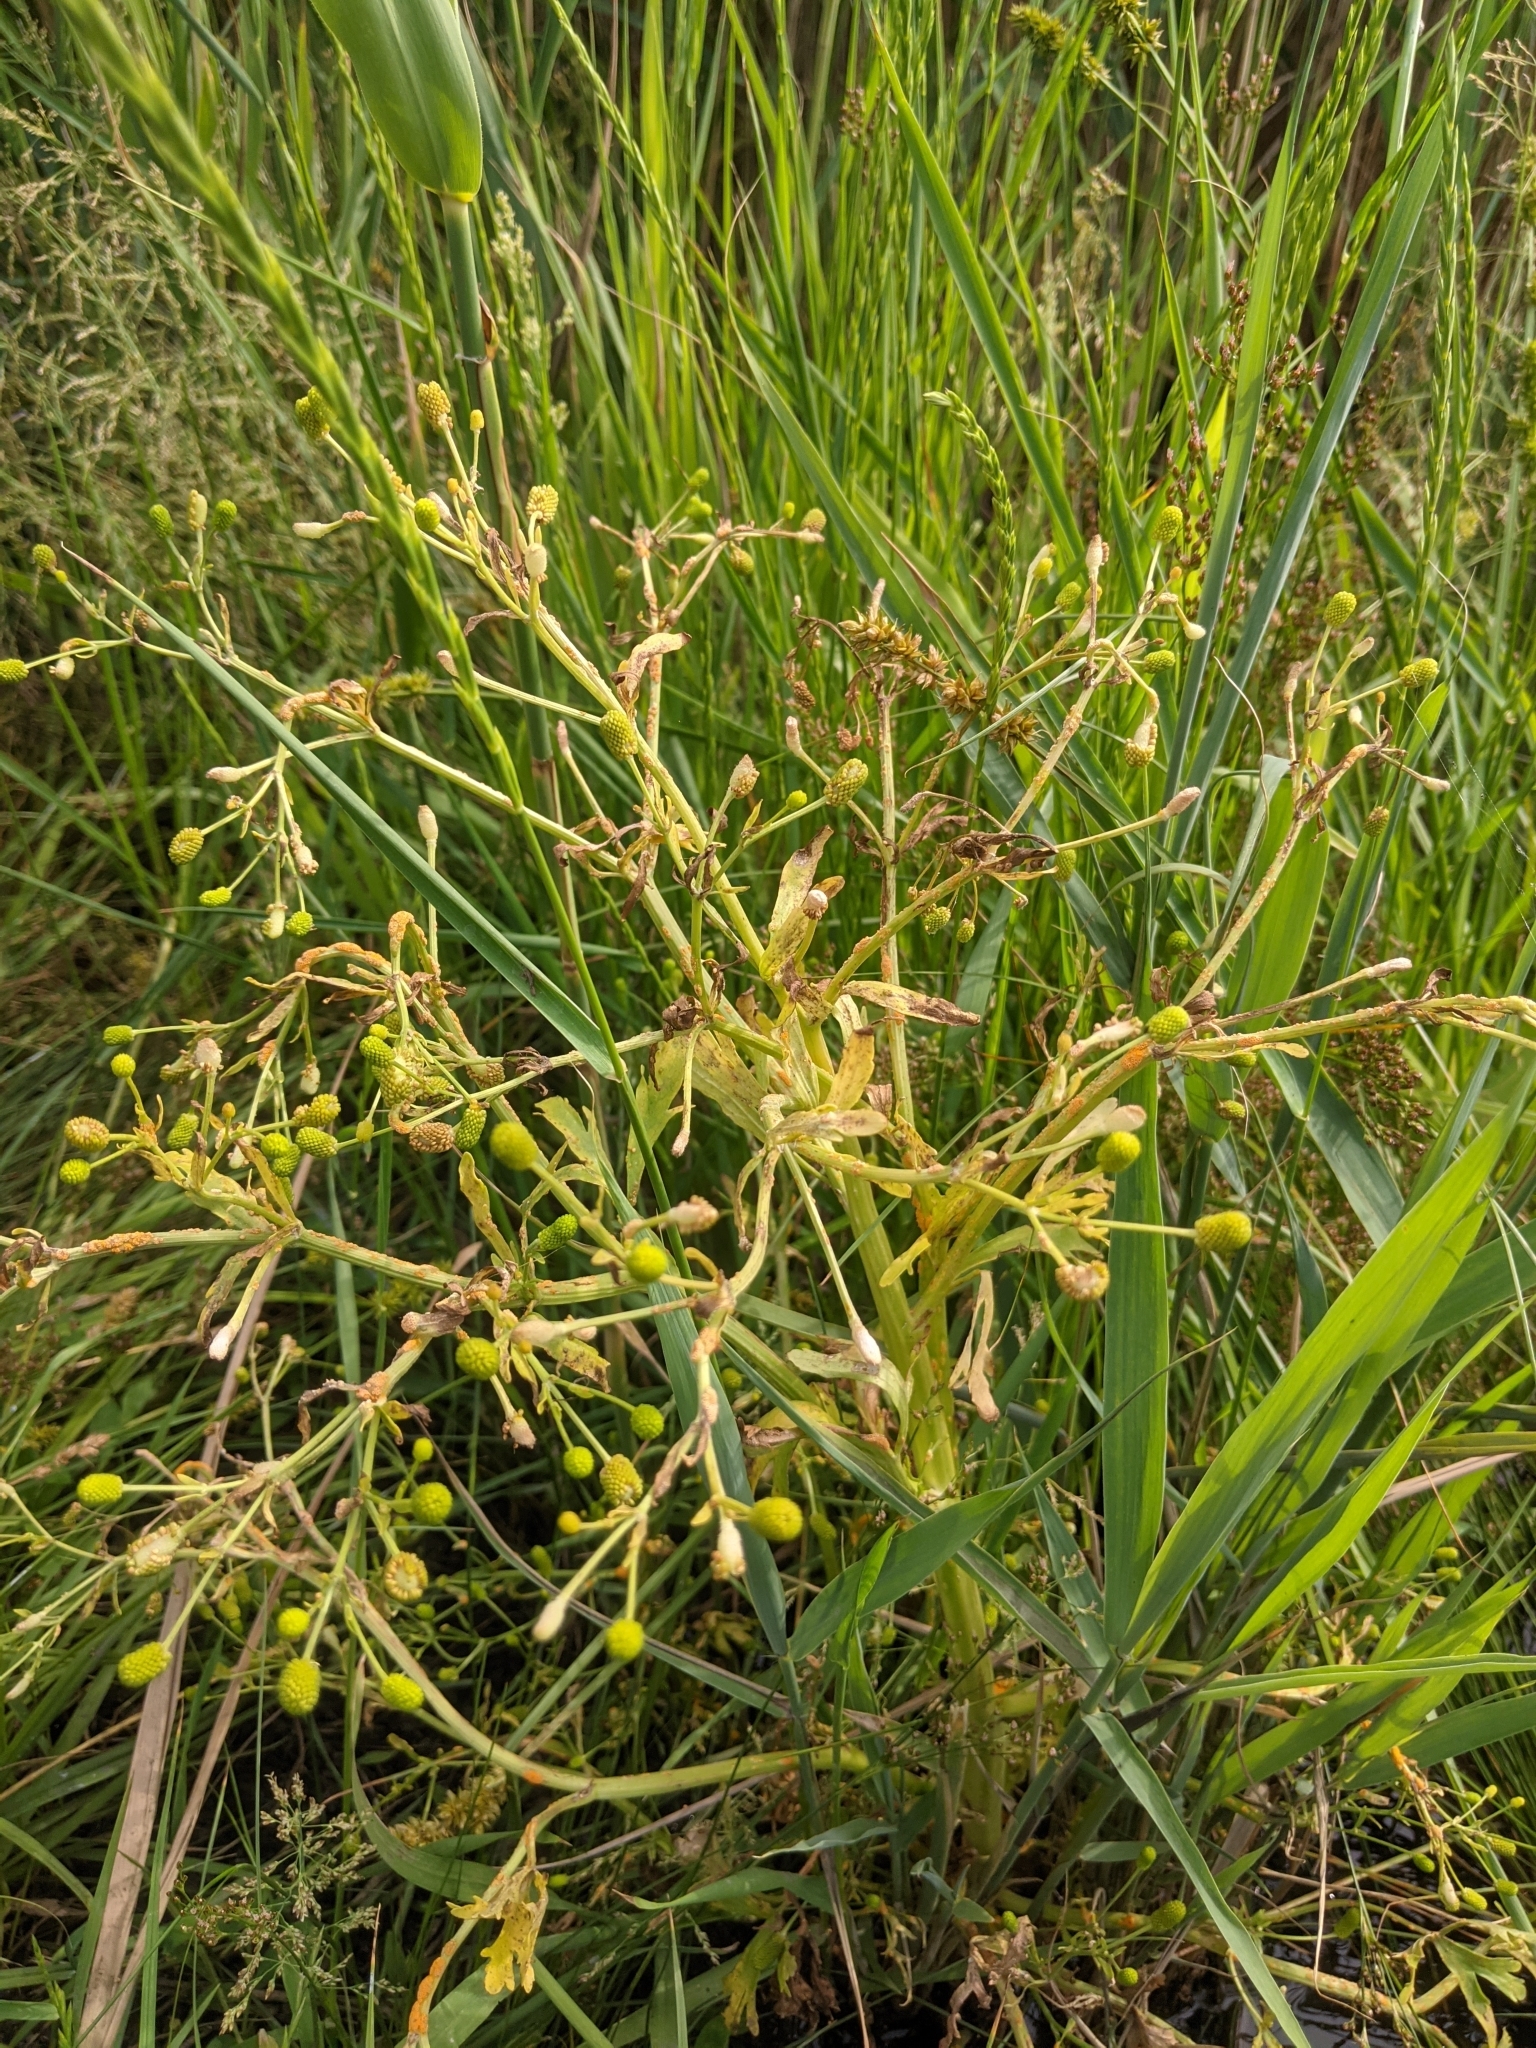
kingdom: Plantae
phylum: Tracheophyta
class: Magnoliopsida
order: Ranunculales
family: Ranunculaceae
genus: Ranunculus
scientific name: Ranunculus sceleratus
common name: Celery-leaved buttercup
